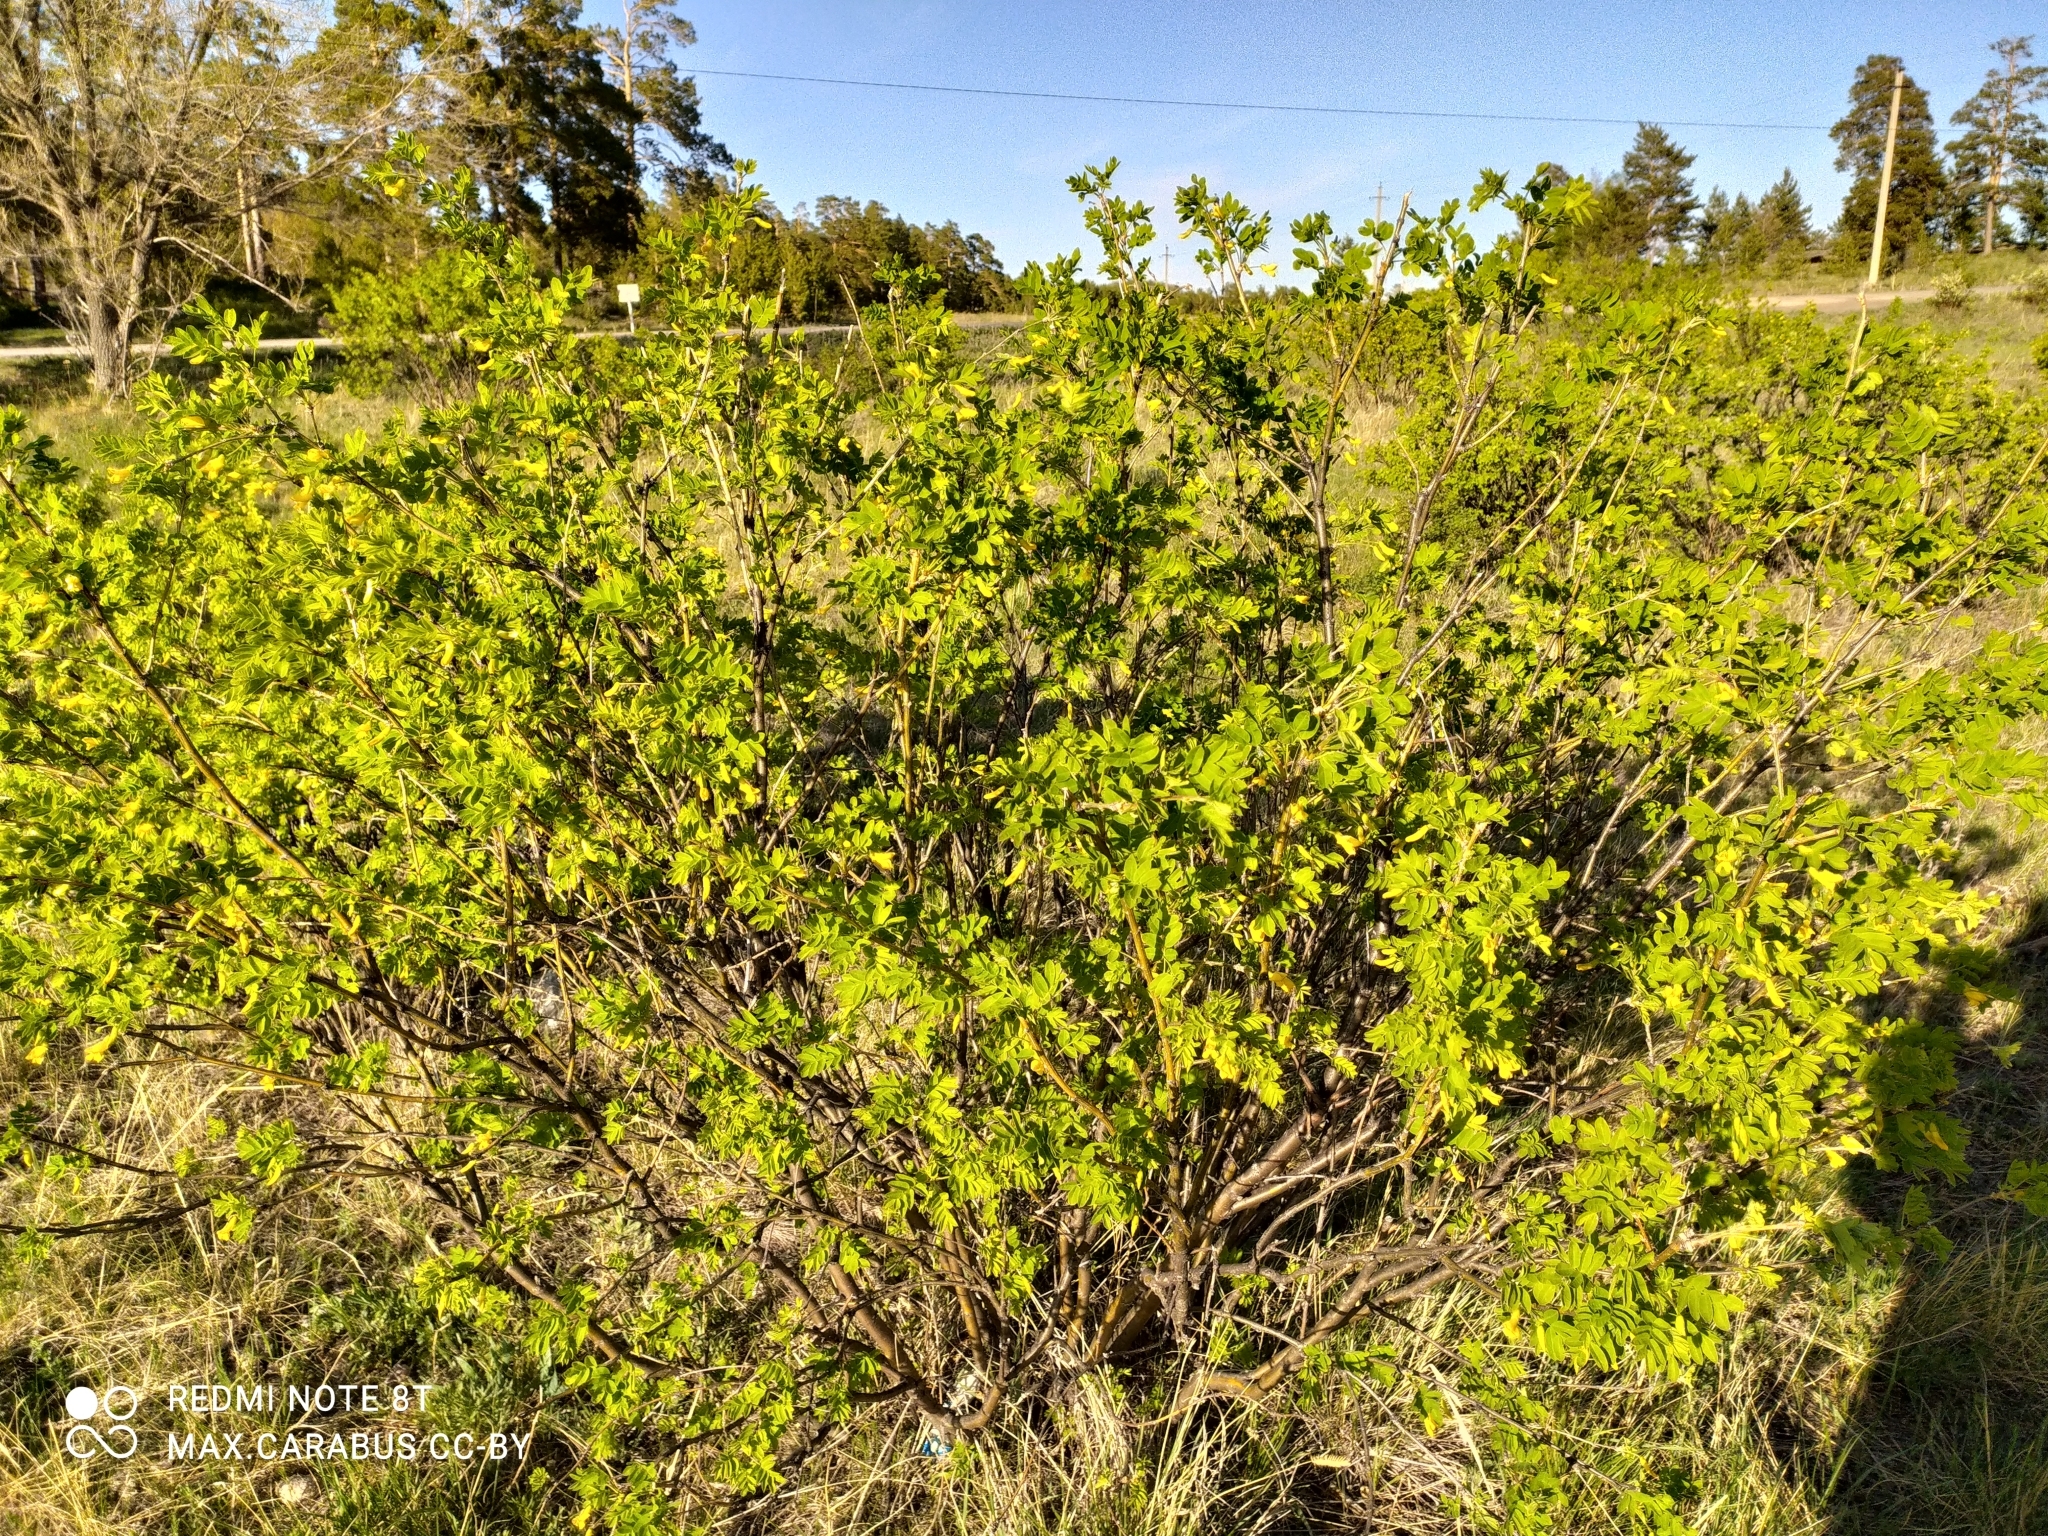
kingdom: Plantae
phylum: Tracheophyta
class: Magnoliopsida
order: Fabales
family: Fabaceae
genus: Caragana
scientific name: Caragana arborescens
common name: Siberian peashrub
